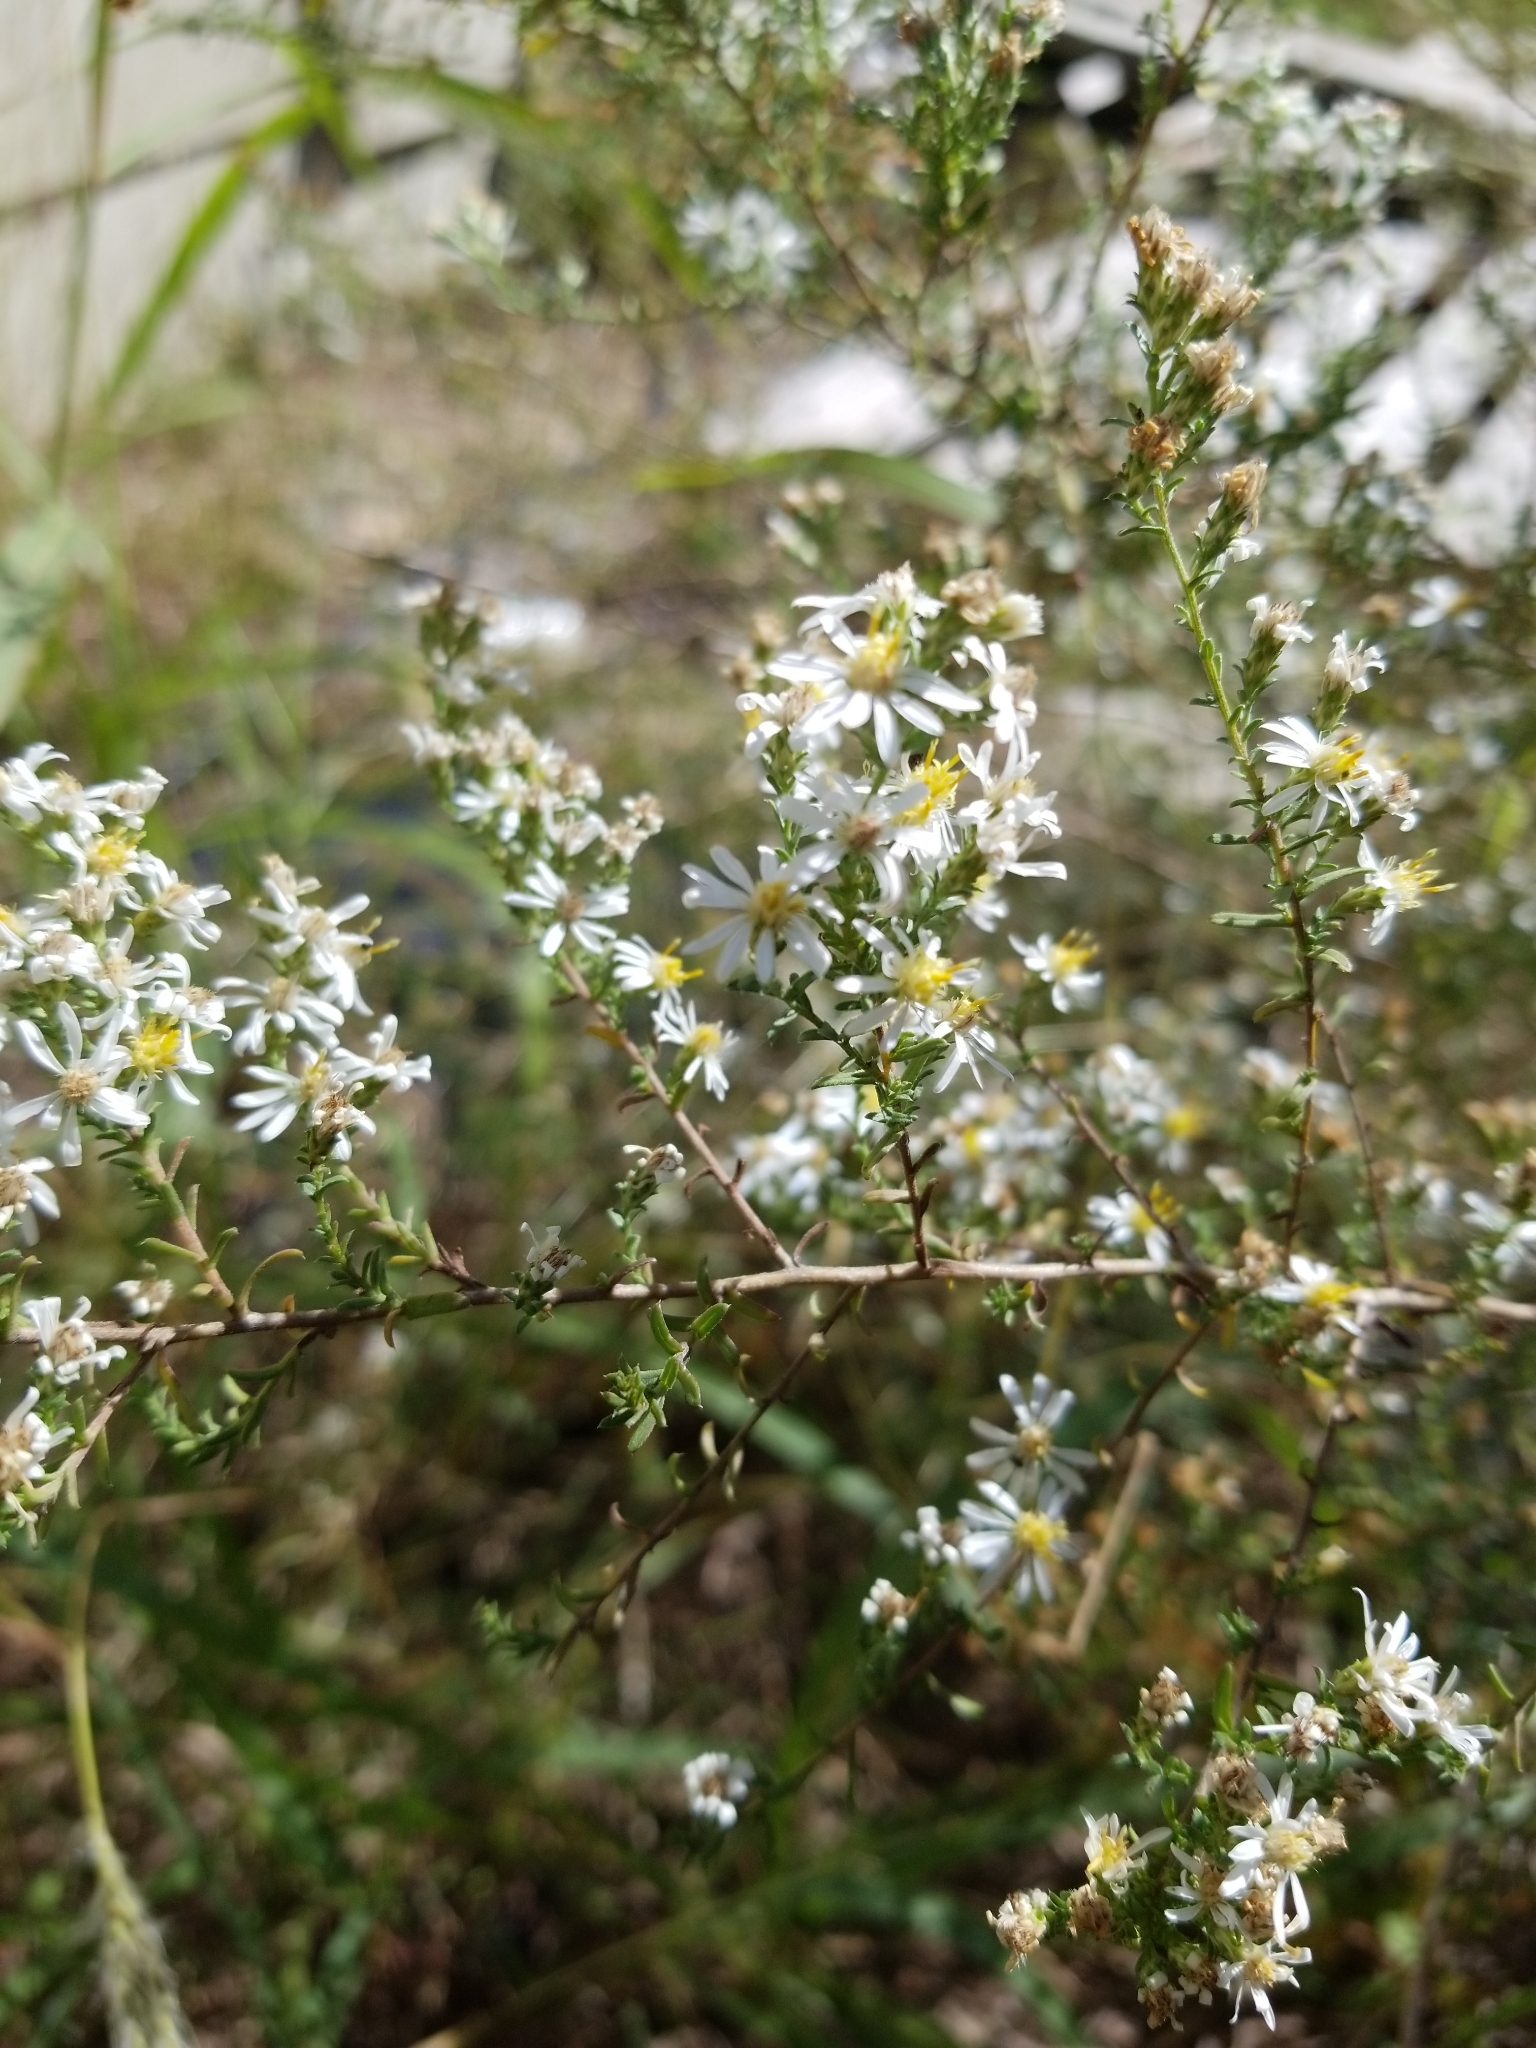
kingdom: Plantae
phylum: Tracheophyta
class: Magnoliopsida
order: Asterales
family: Asteraceae
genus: Symphyotrichum
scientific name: Symphyotrichum ericoides
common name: Heath aster
